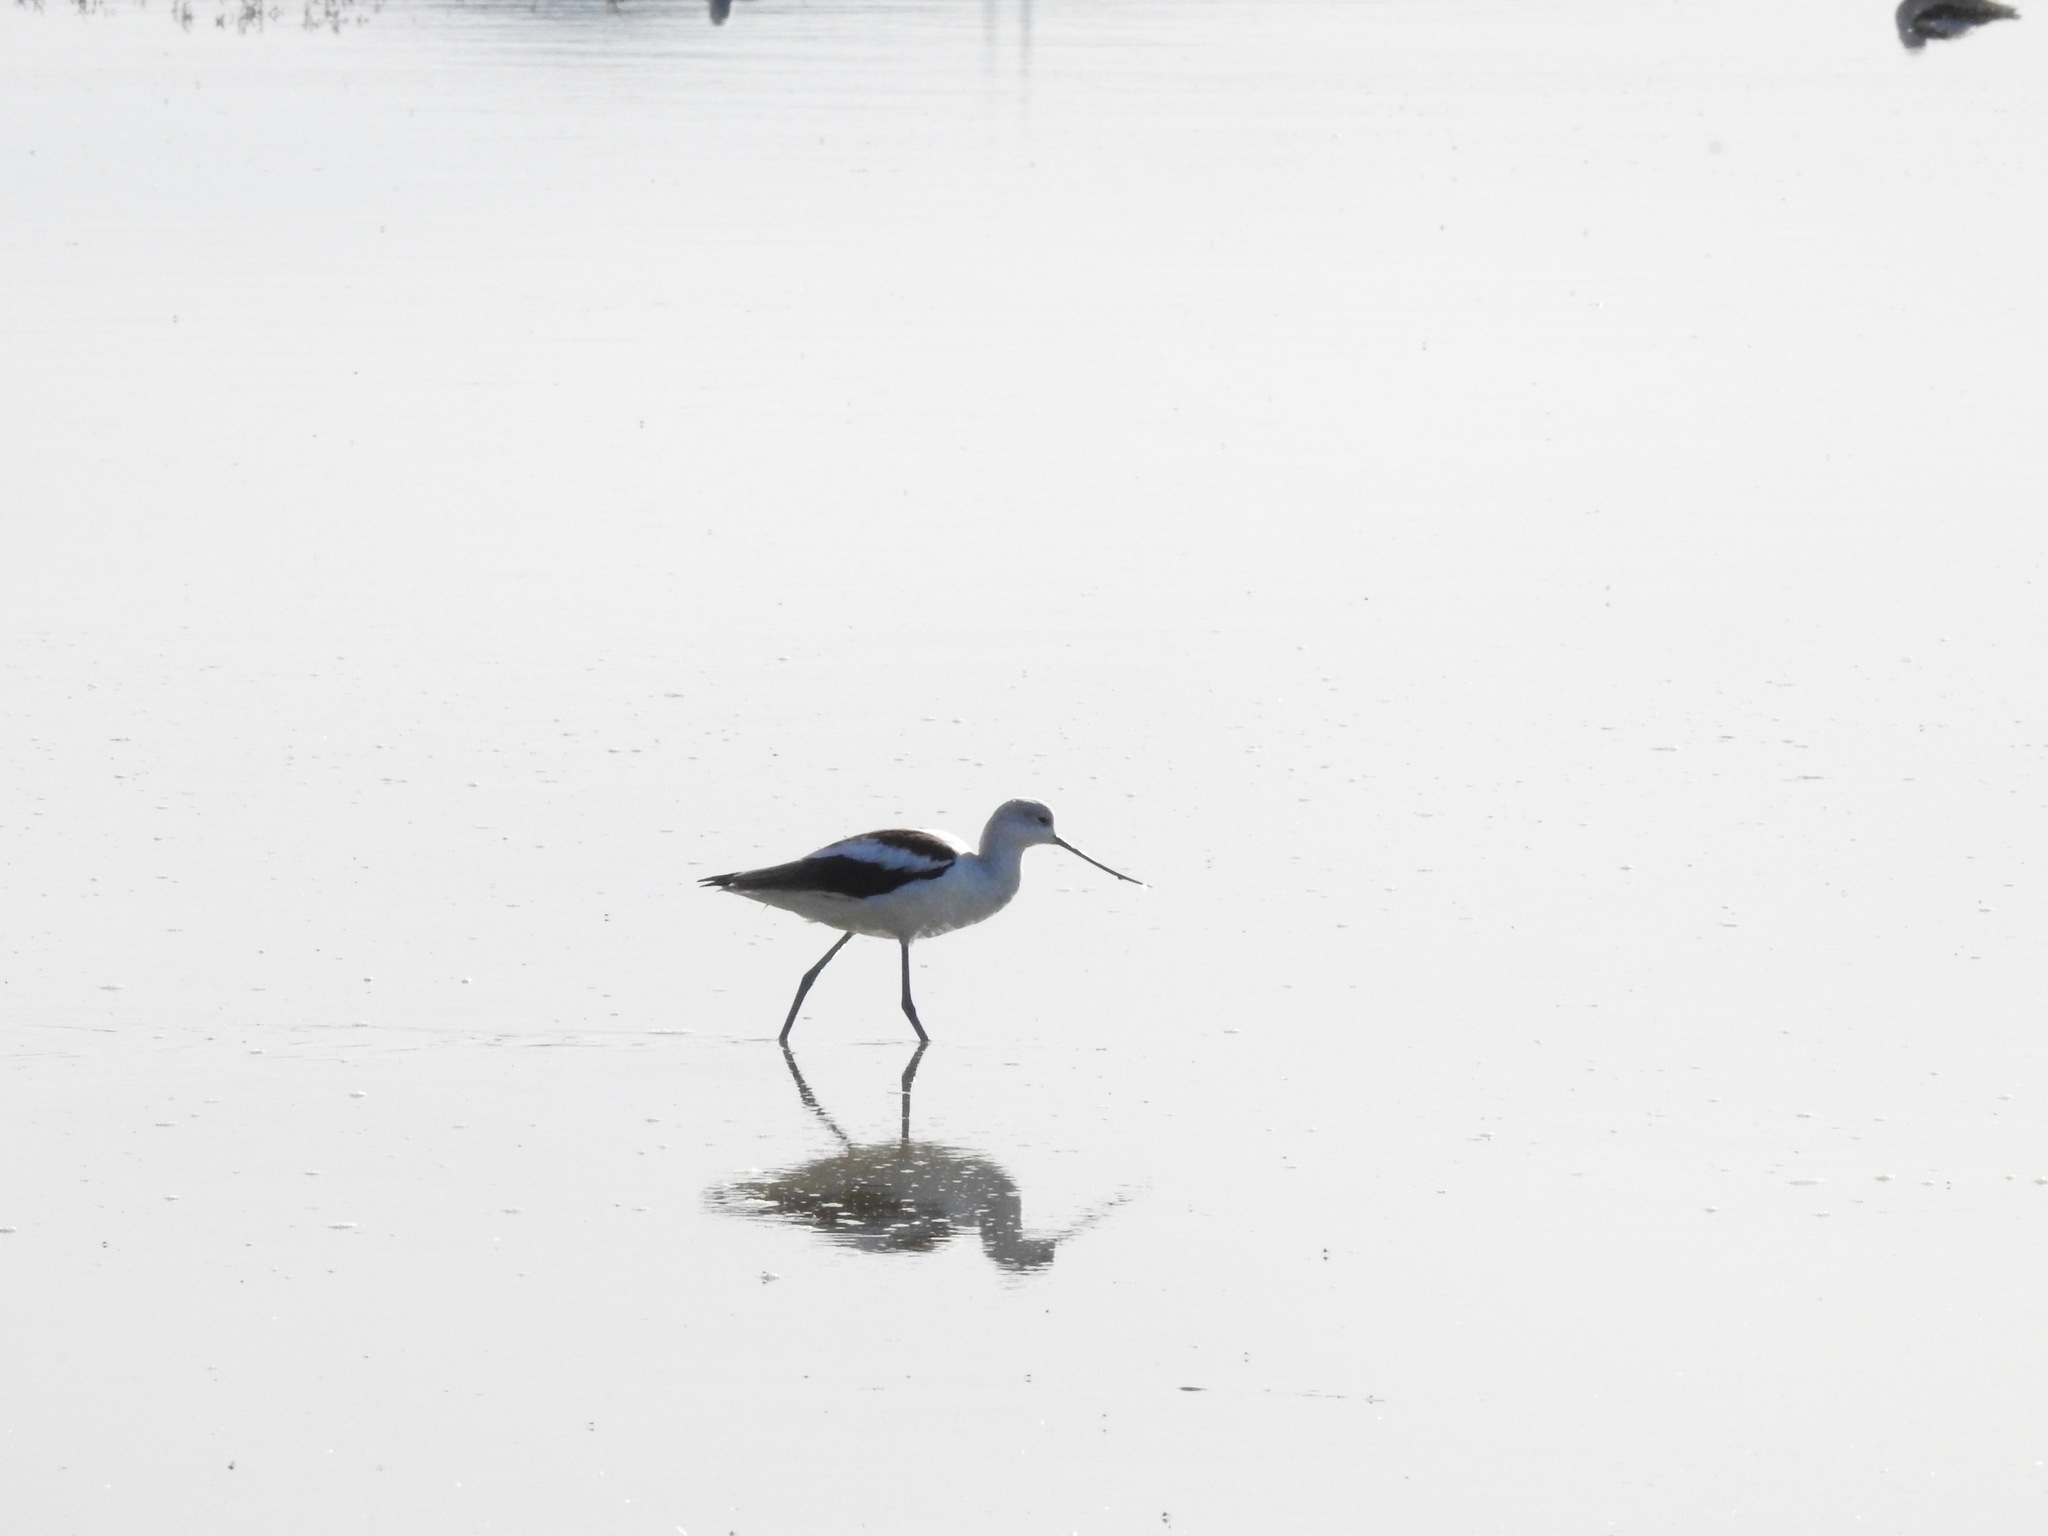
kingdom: Animalia
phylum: Chordata
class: Aves
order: Charadriiformes
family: Recurvirostridae
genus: Recurvirostra
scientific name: Recurvirostra americana
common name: American avocet
